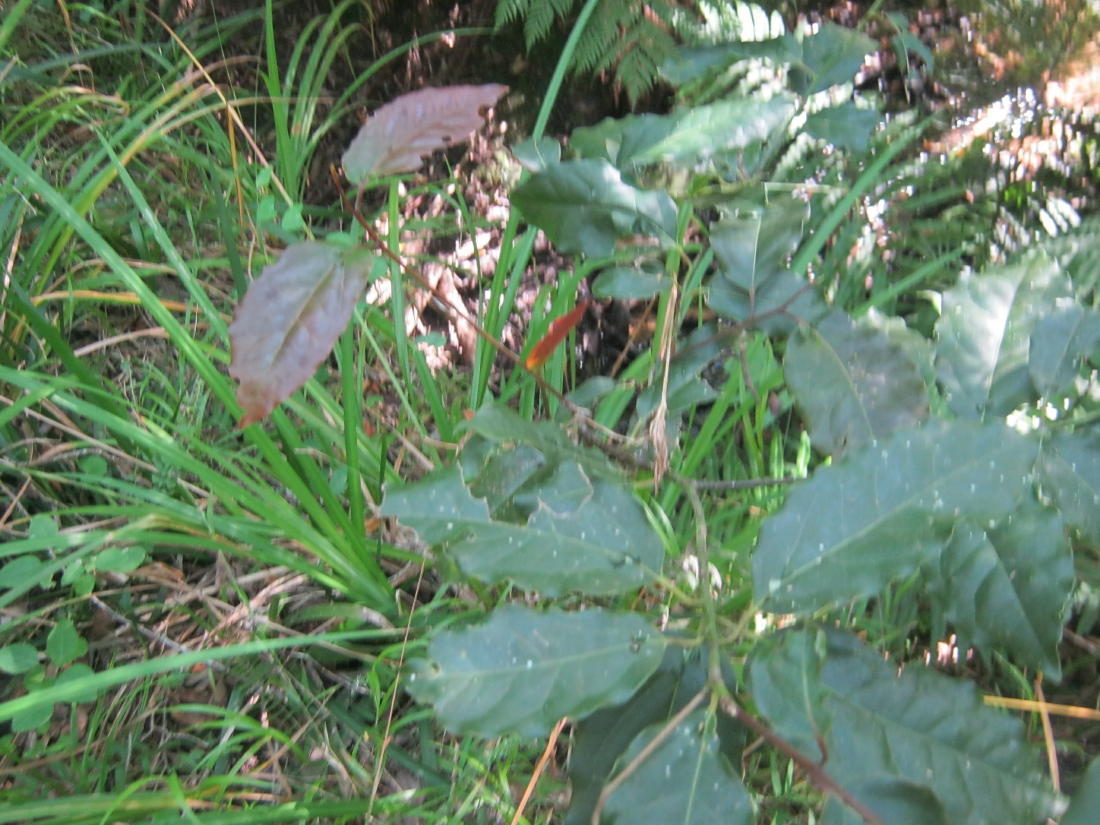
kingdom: Plantae
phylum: Tracheophyta
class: Magnoliopsida
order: Laurales
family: Lauraceae
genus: Ocotea
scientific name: Ocotea bullata
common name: Black stinkwood
